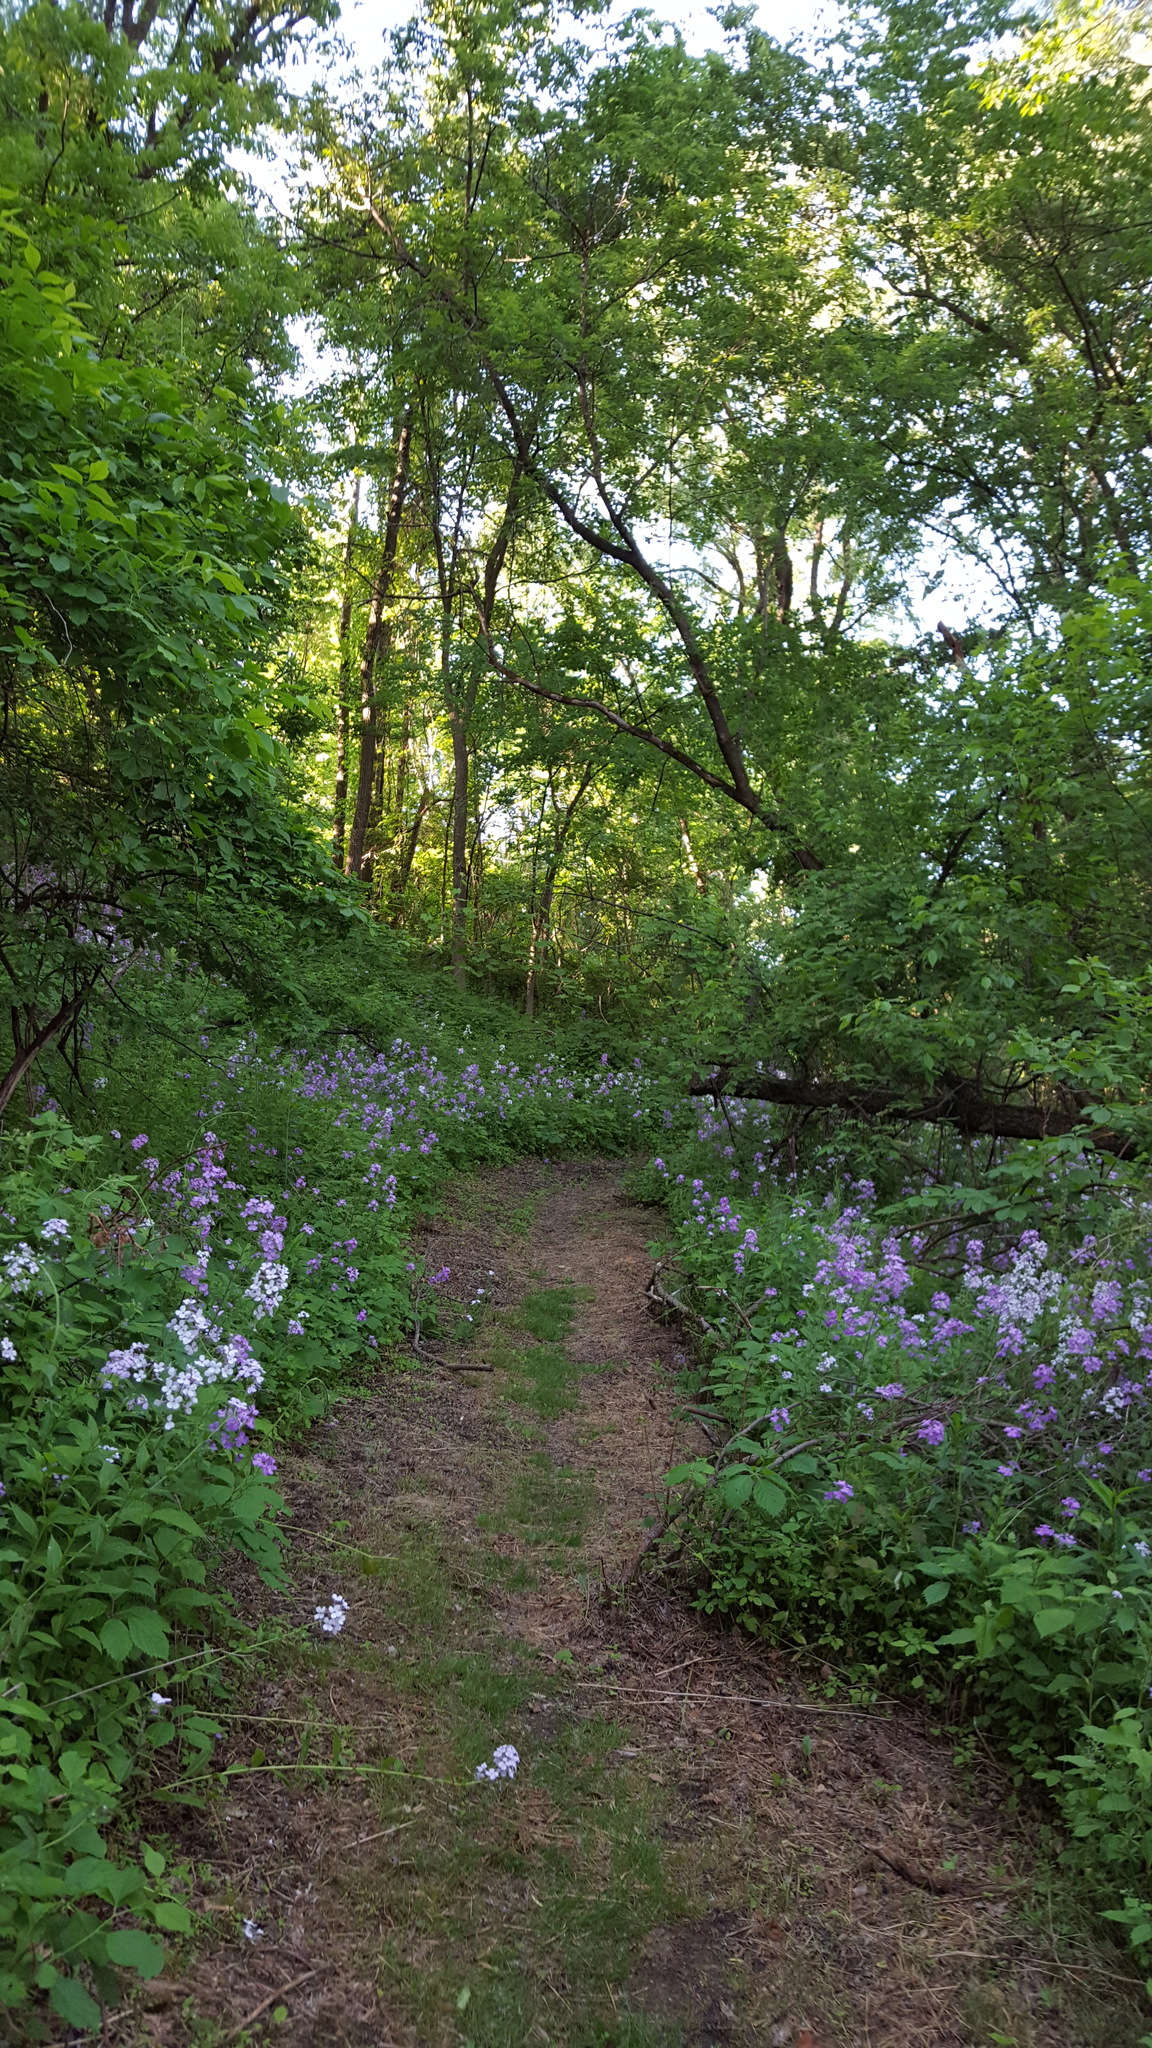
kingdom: Plantae
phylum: Tracheophyta
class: Magnoliopsida
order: Brassicales
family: Brassicaceae
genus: Hesperis
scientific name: Hesperis matronalis
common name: Dame's-violet
